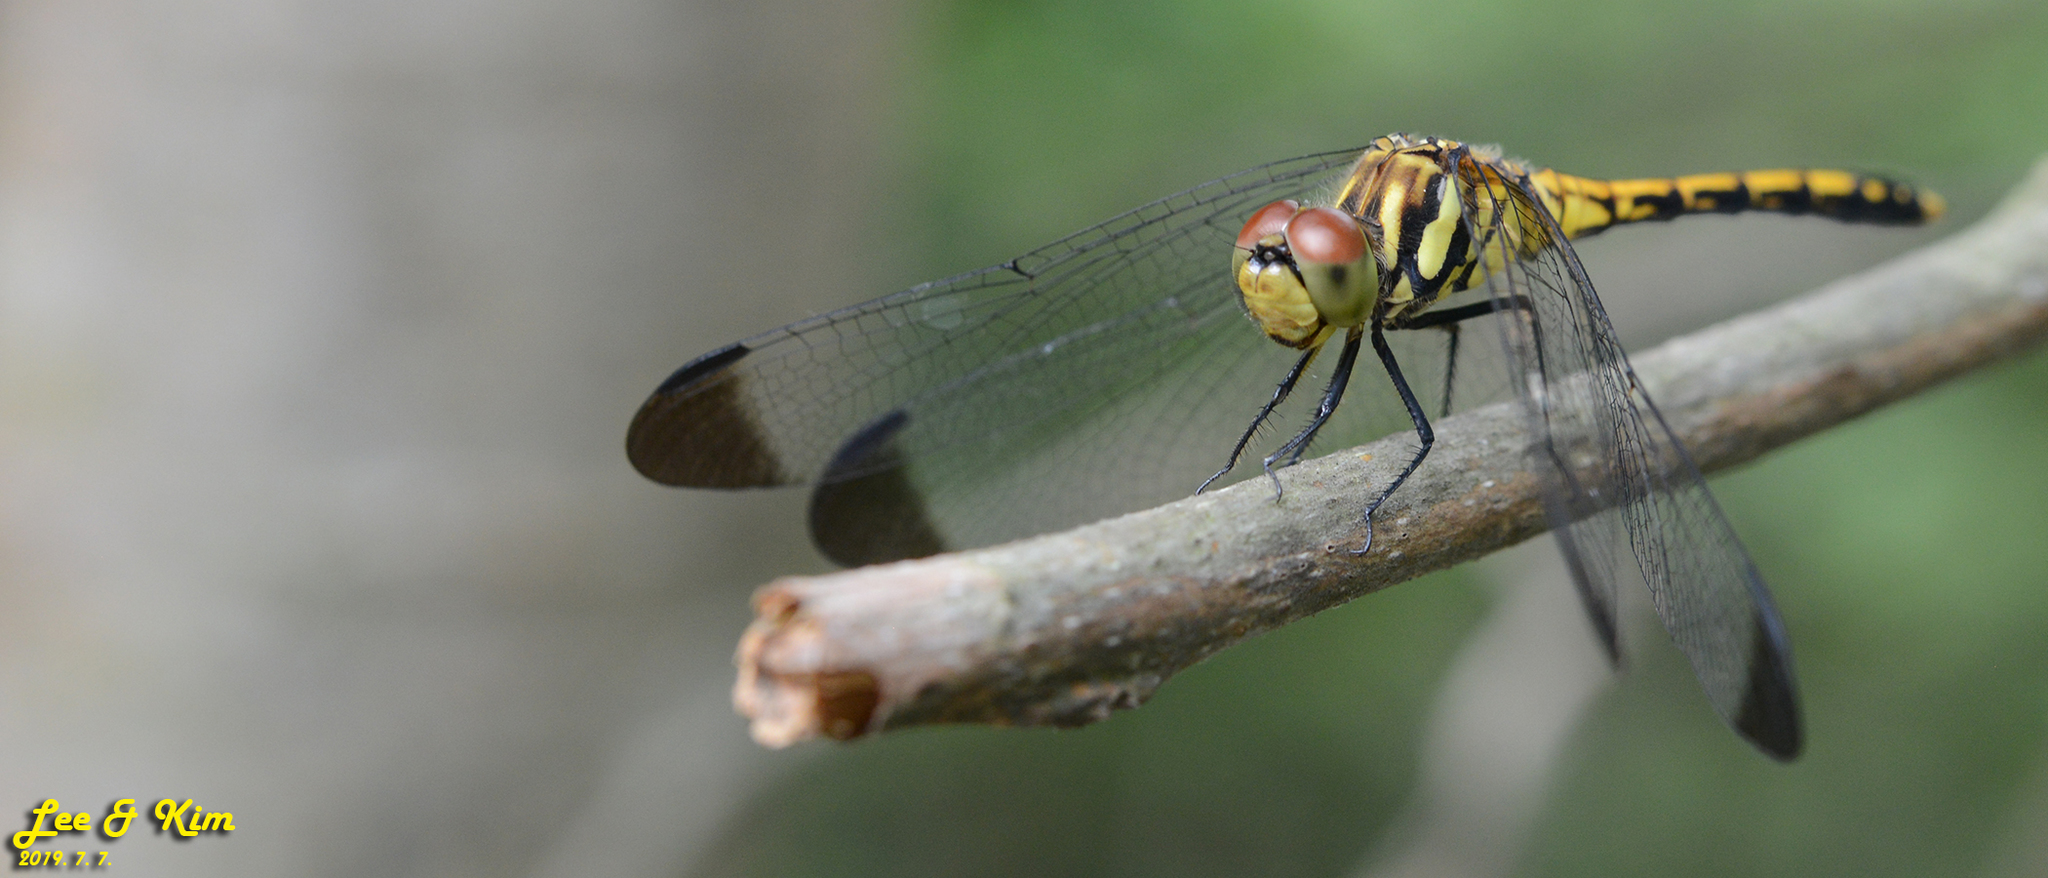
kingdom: Animalia
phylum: Arthropoda
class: Insecta
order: Odonata
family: Libellulidae
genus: Sympetrum
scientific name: Sympetrum infuscatum
